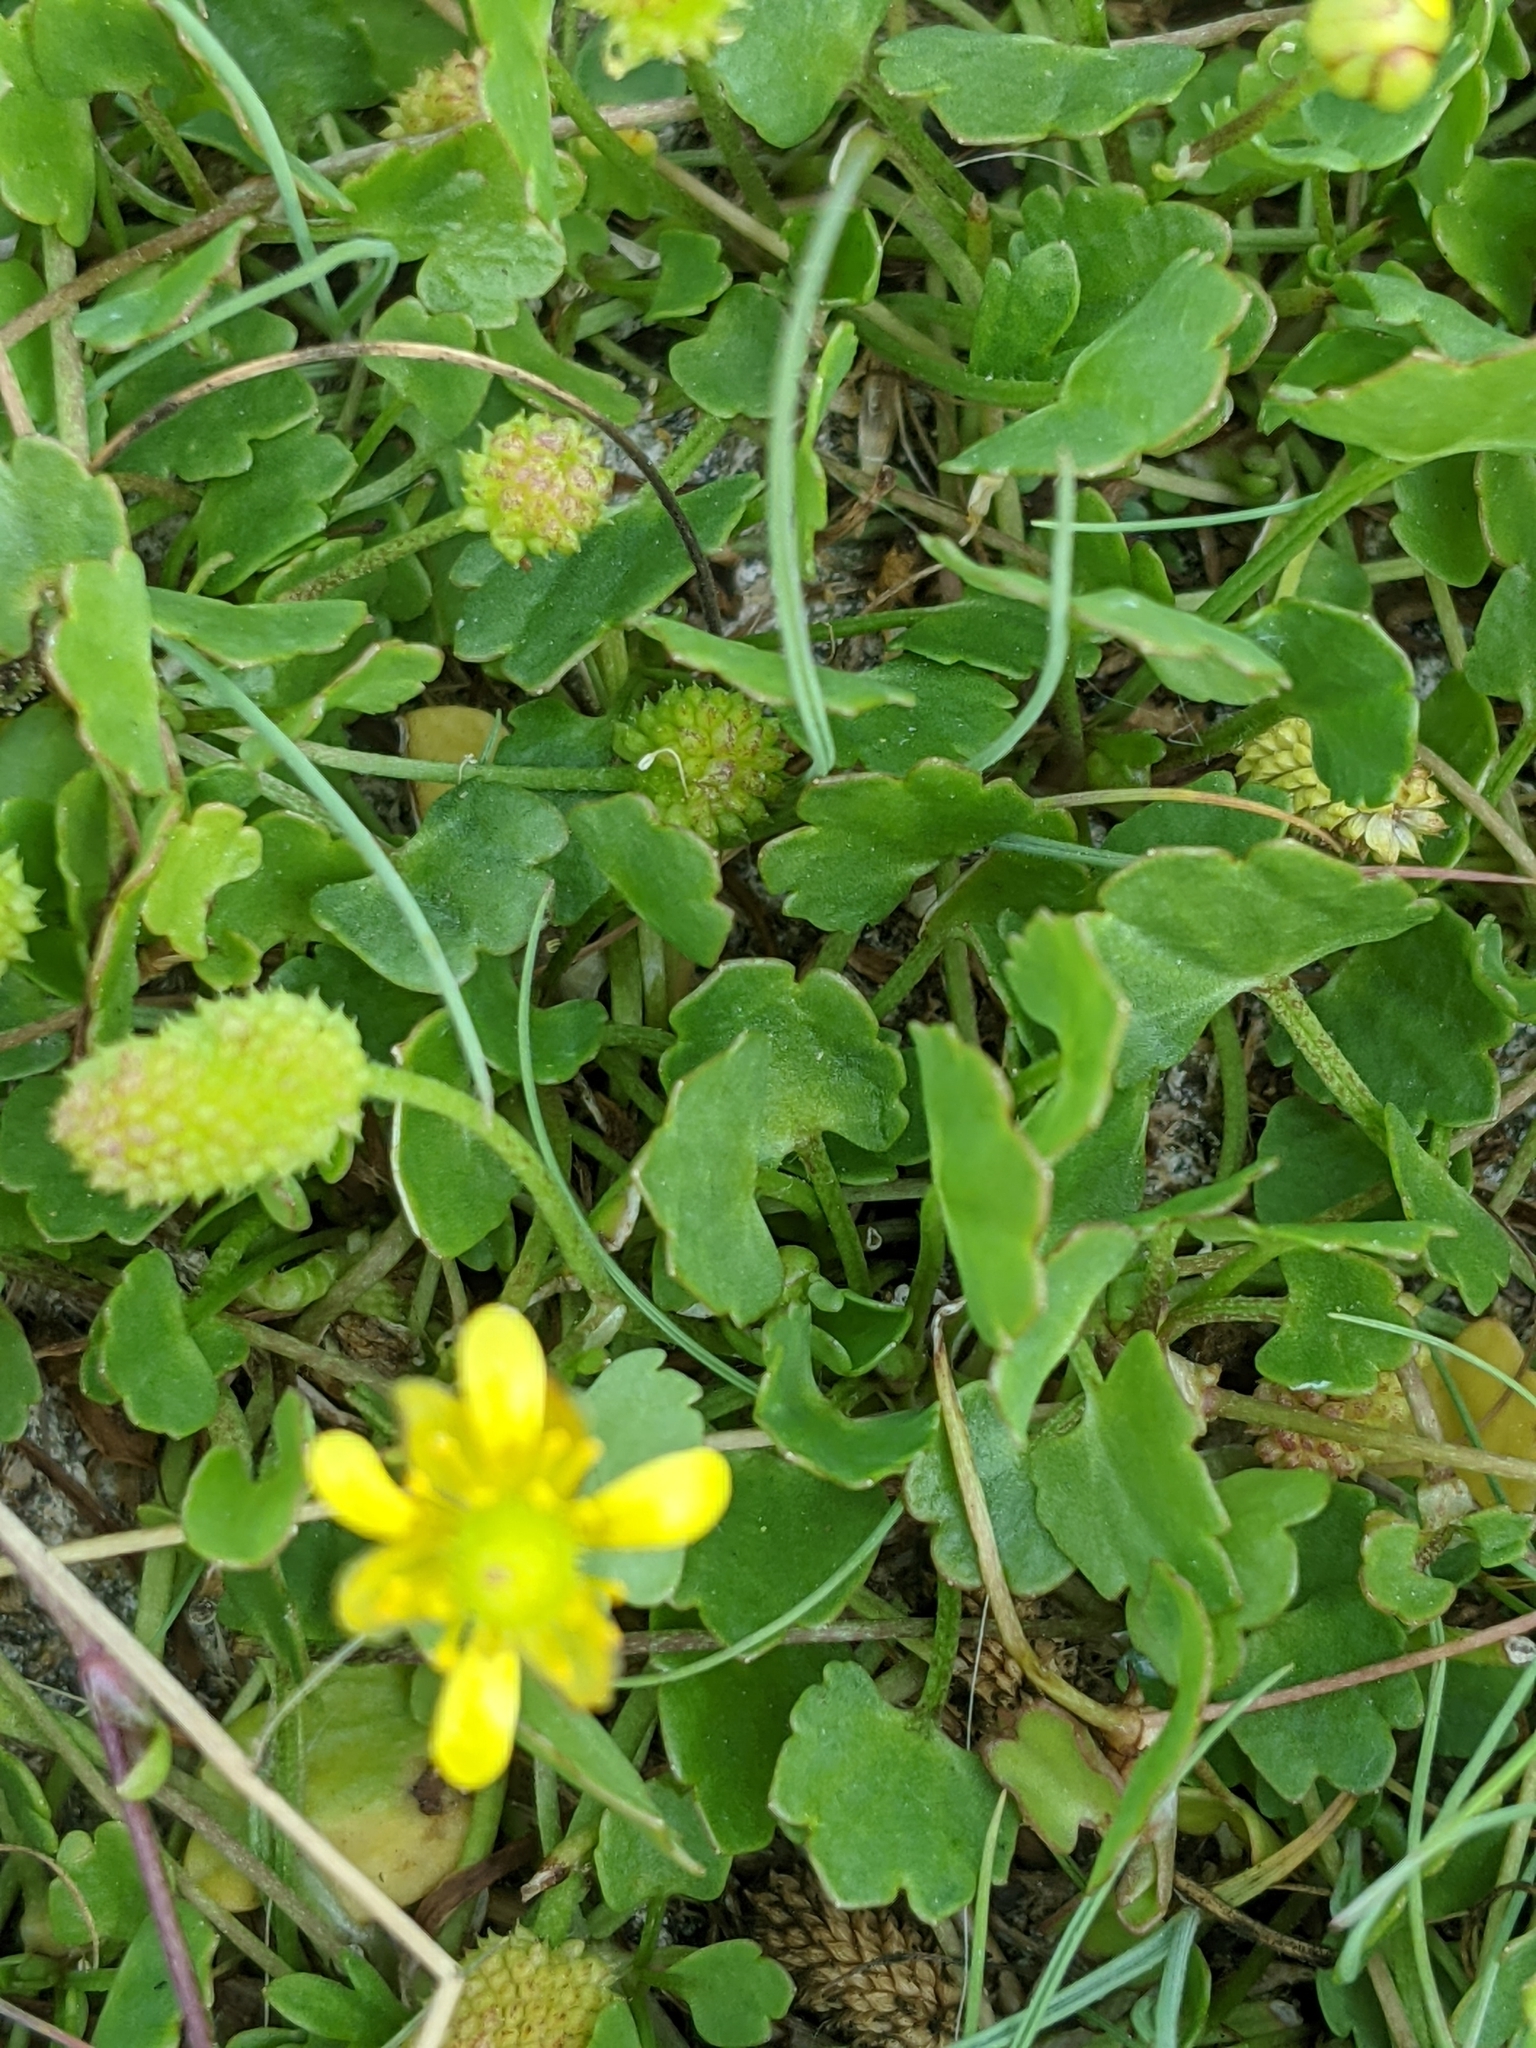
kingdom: Plantae
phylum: Tracheophyta
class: Magnoliopsida
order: Ranunculales
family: Ranunculaceae
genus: Halerpestes
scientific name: Halerpestes cymbalaria
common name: Seaside crowfoot
